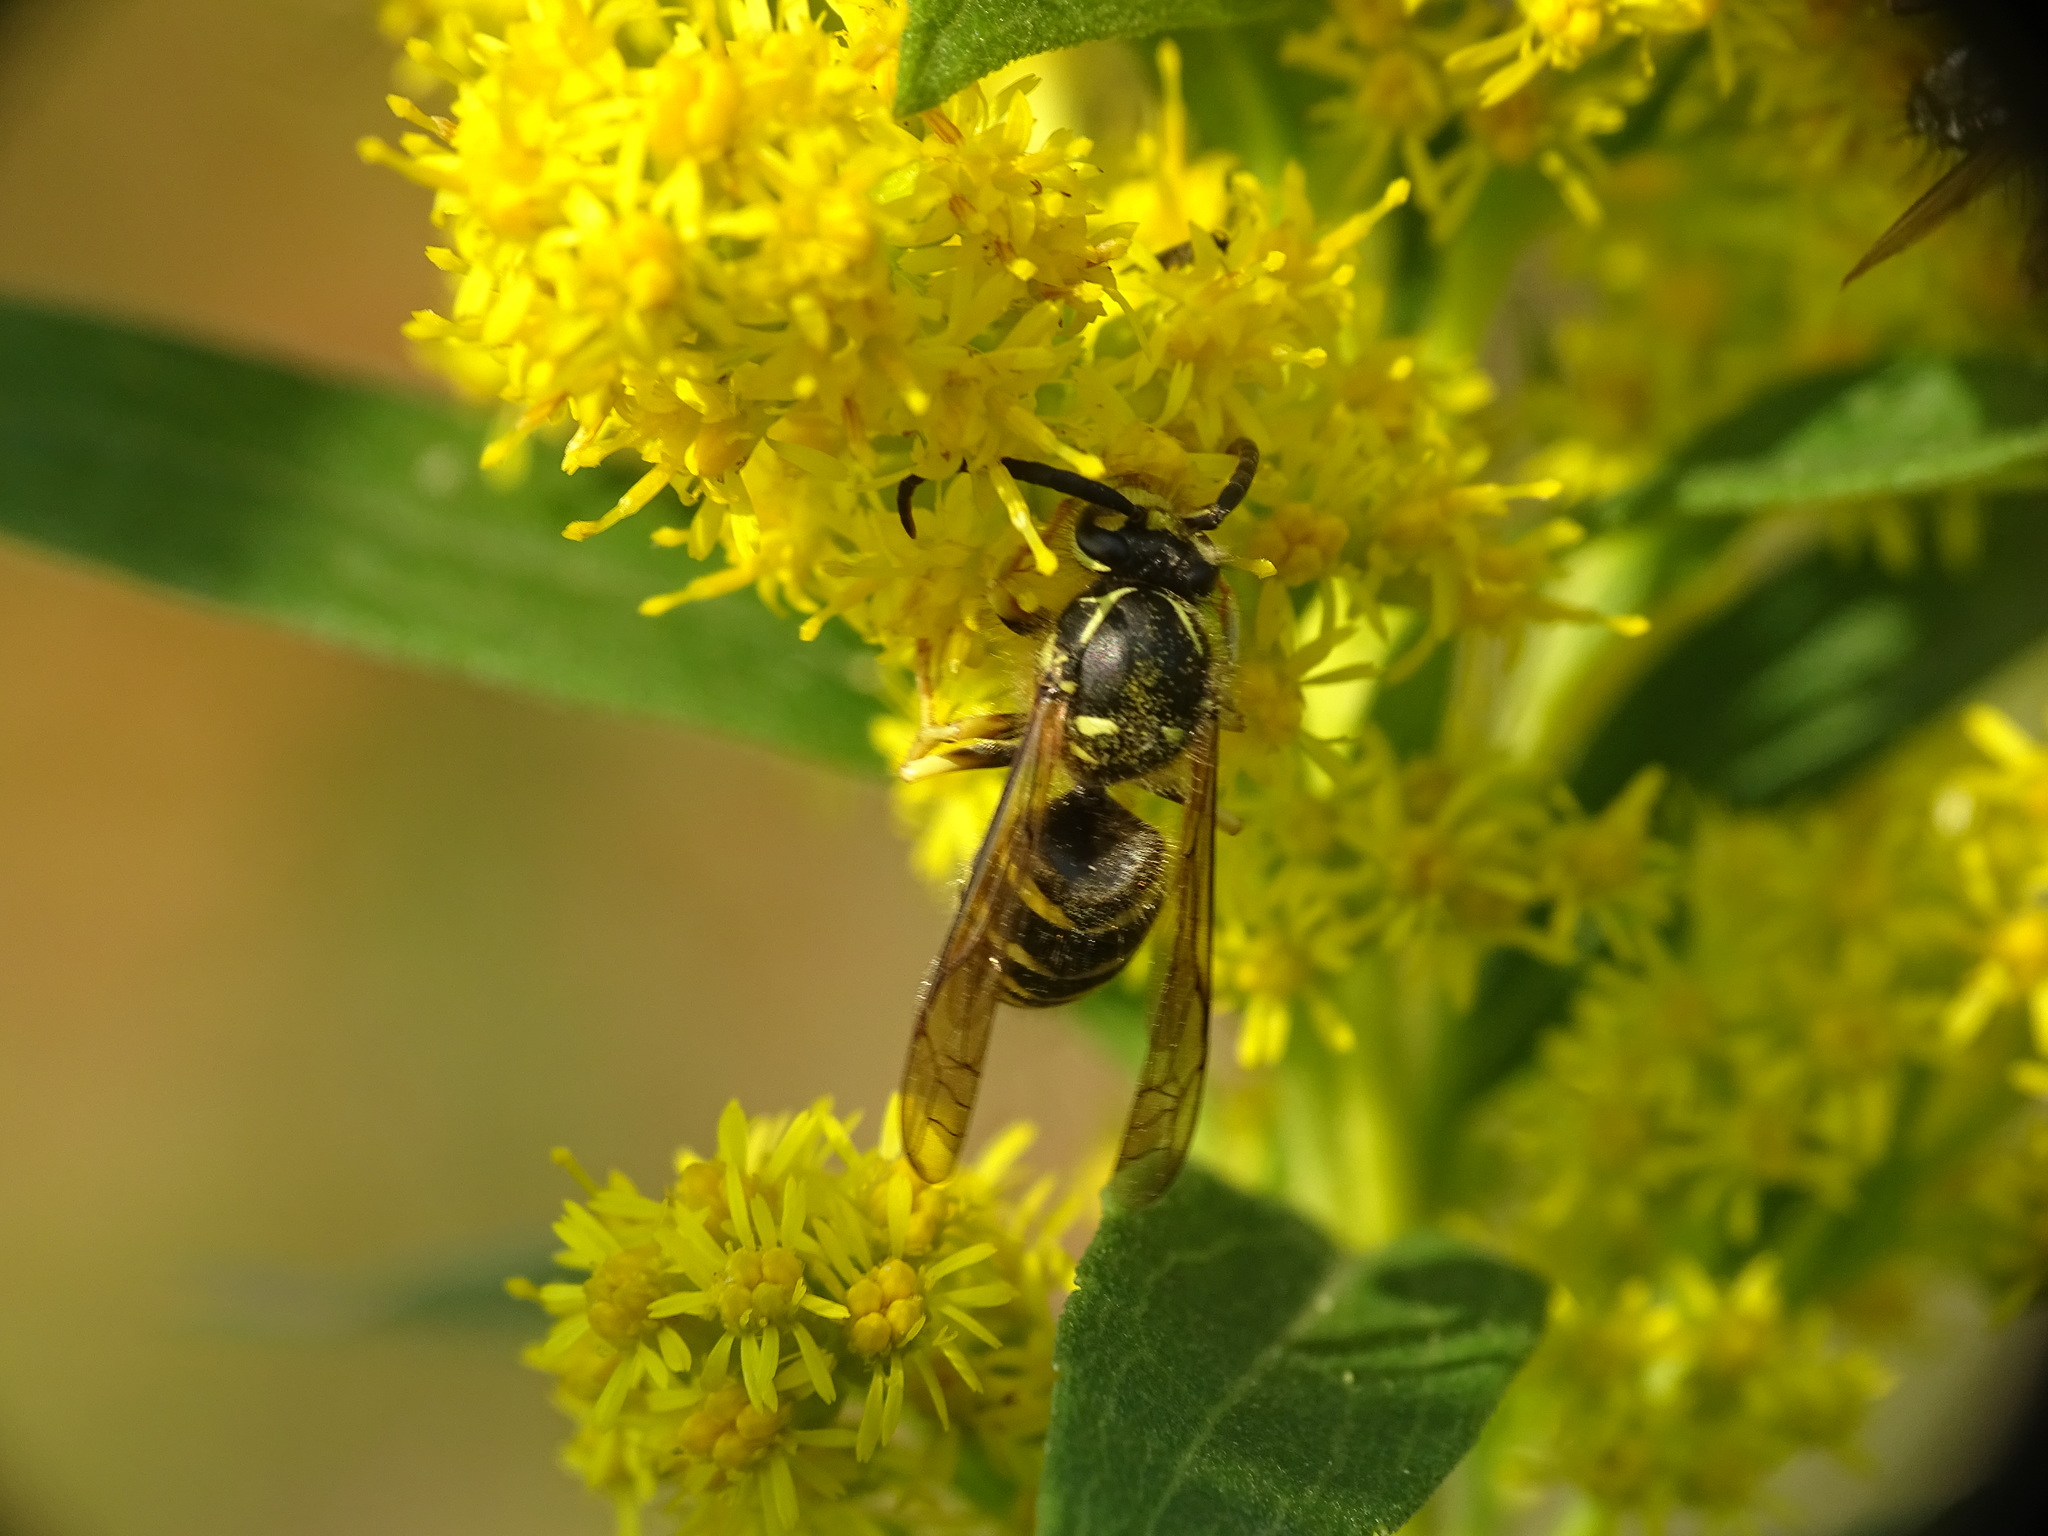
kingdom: Animalia
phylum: Arthropoda
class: Insecta
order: Hymenoptera
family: Vespidae
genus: Dolichovespula
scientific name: Dolichovespula arenaria
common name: Aerial yellowjacket
